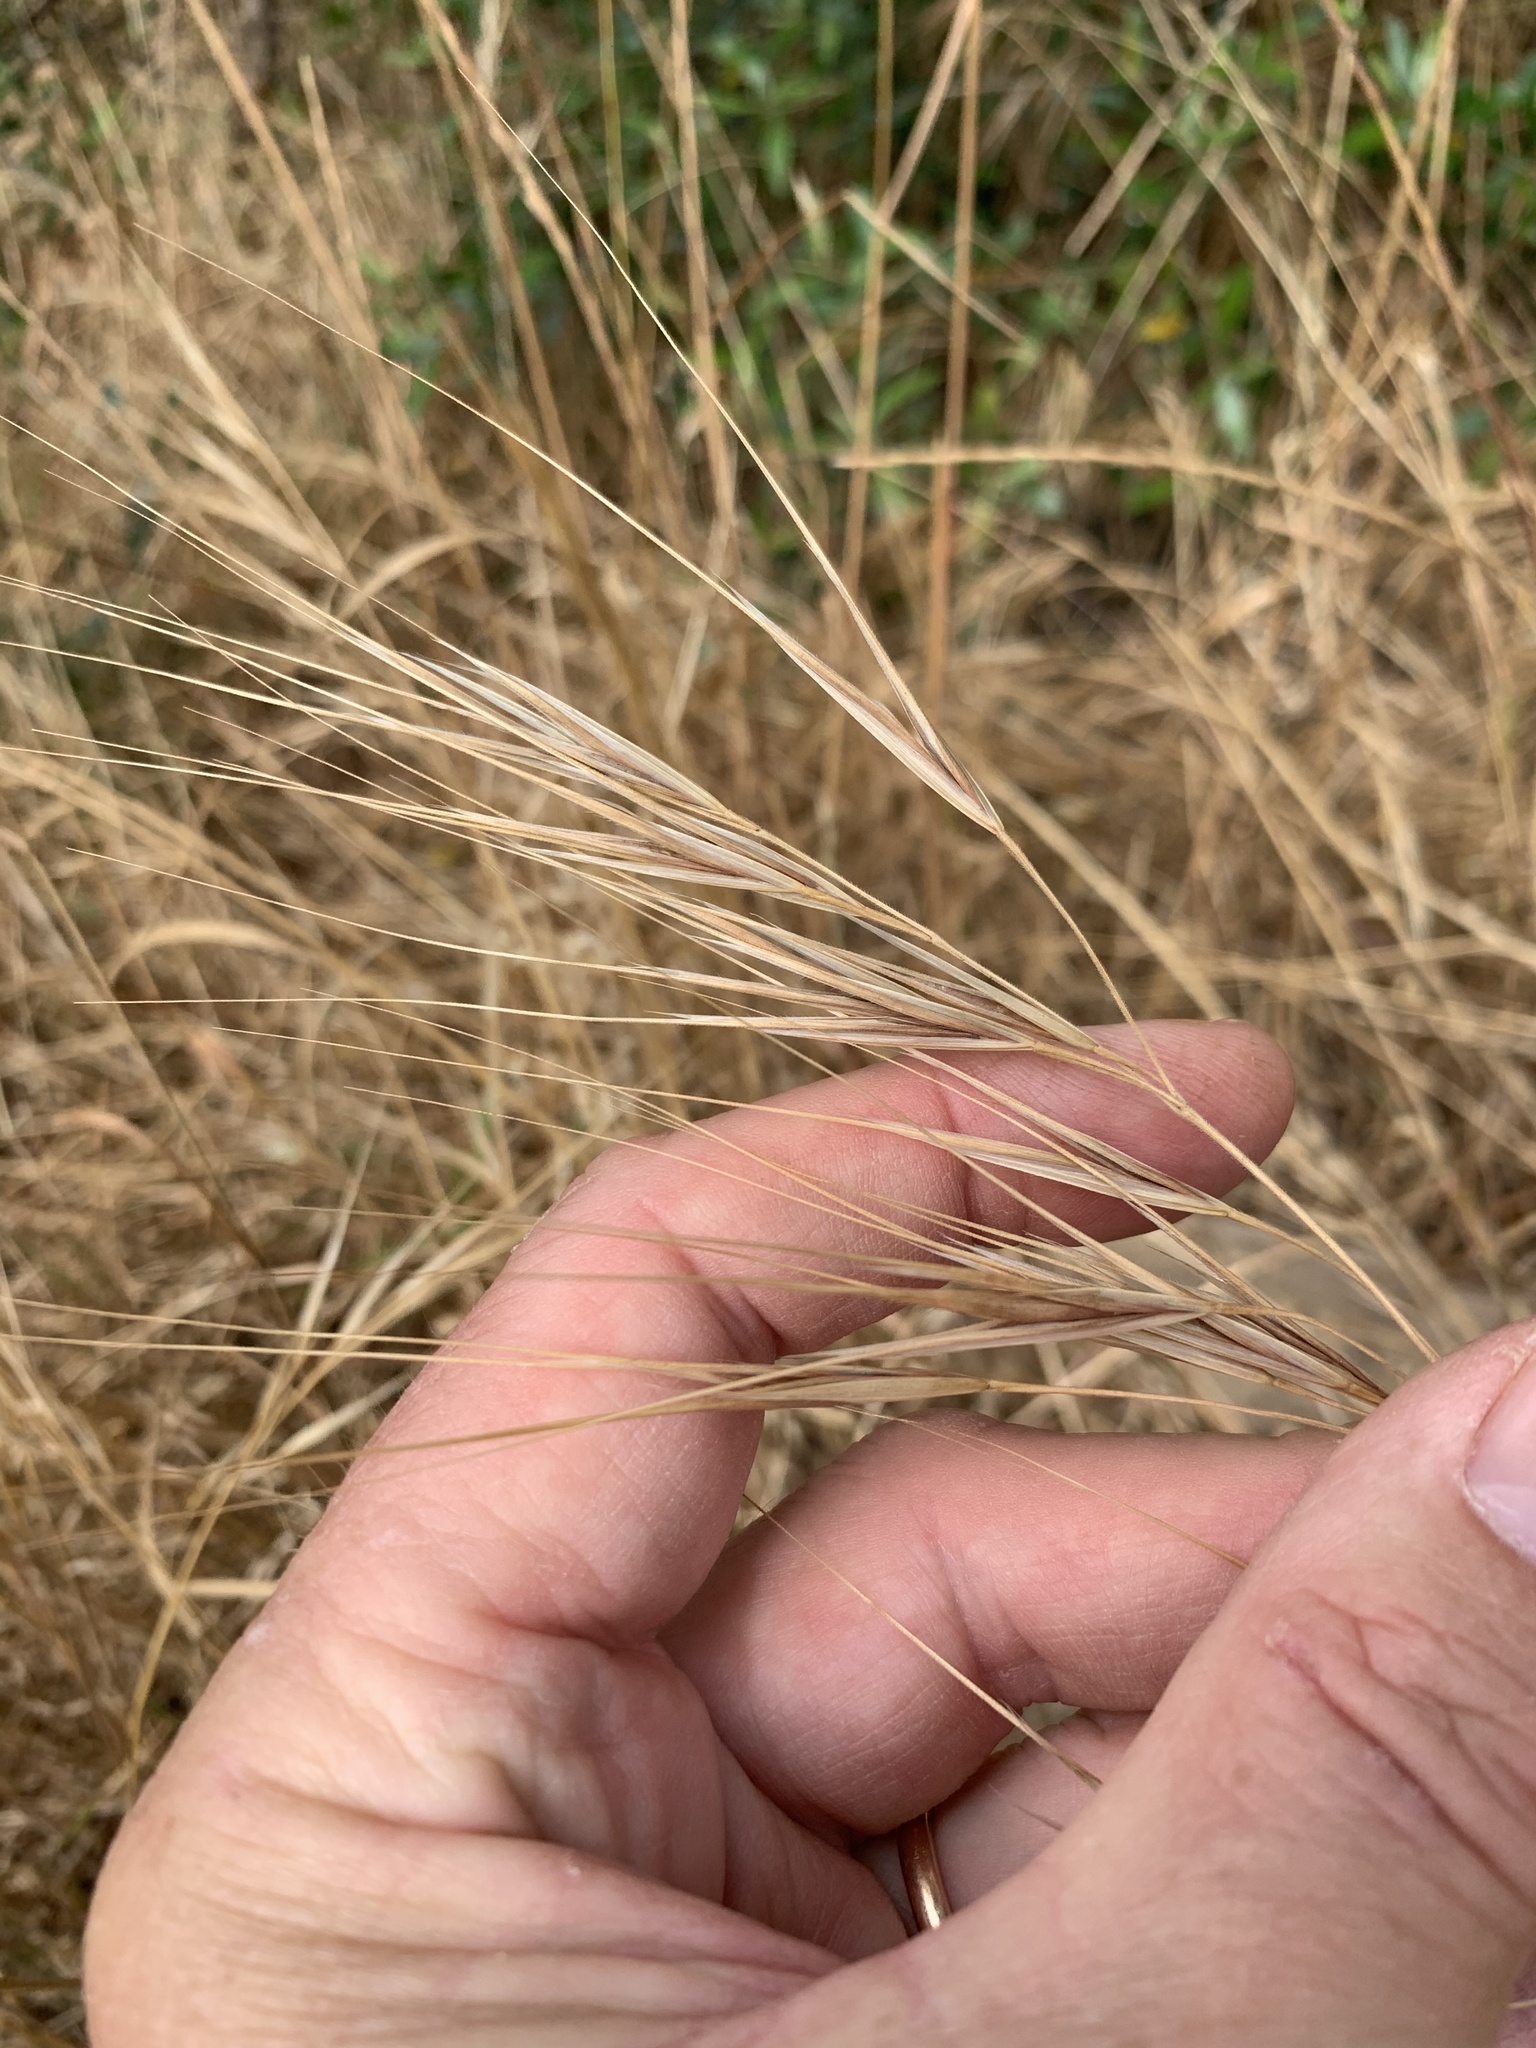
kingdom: Plantae
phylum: Tracheophyta
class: Liliopsida
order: Poales
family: Poaceae
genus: Bromus
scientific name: Bromus diandrus
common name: Ripgut brome
